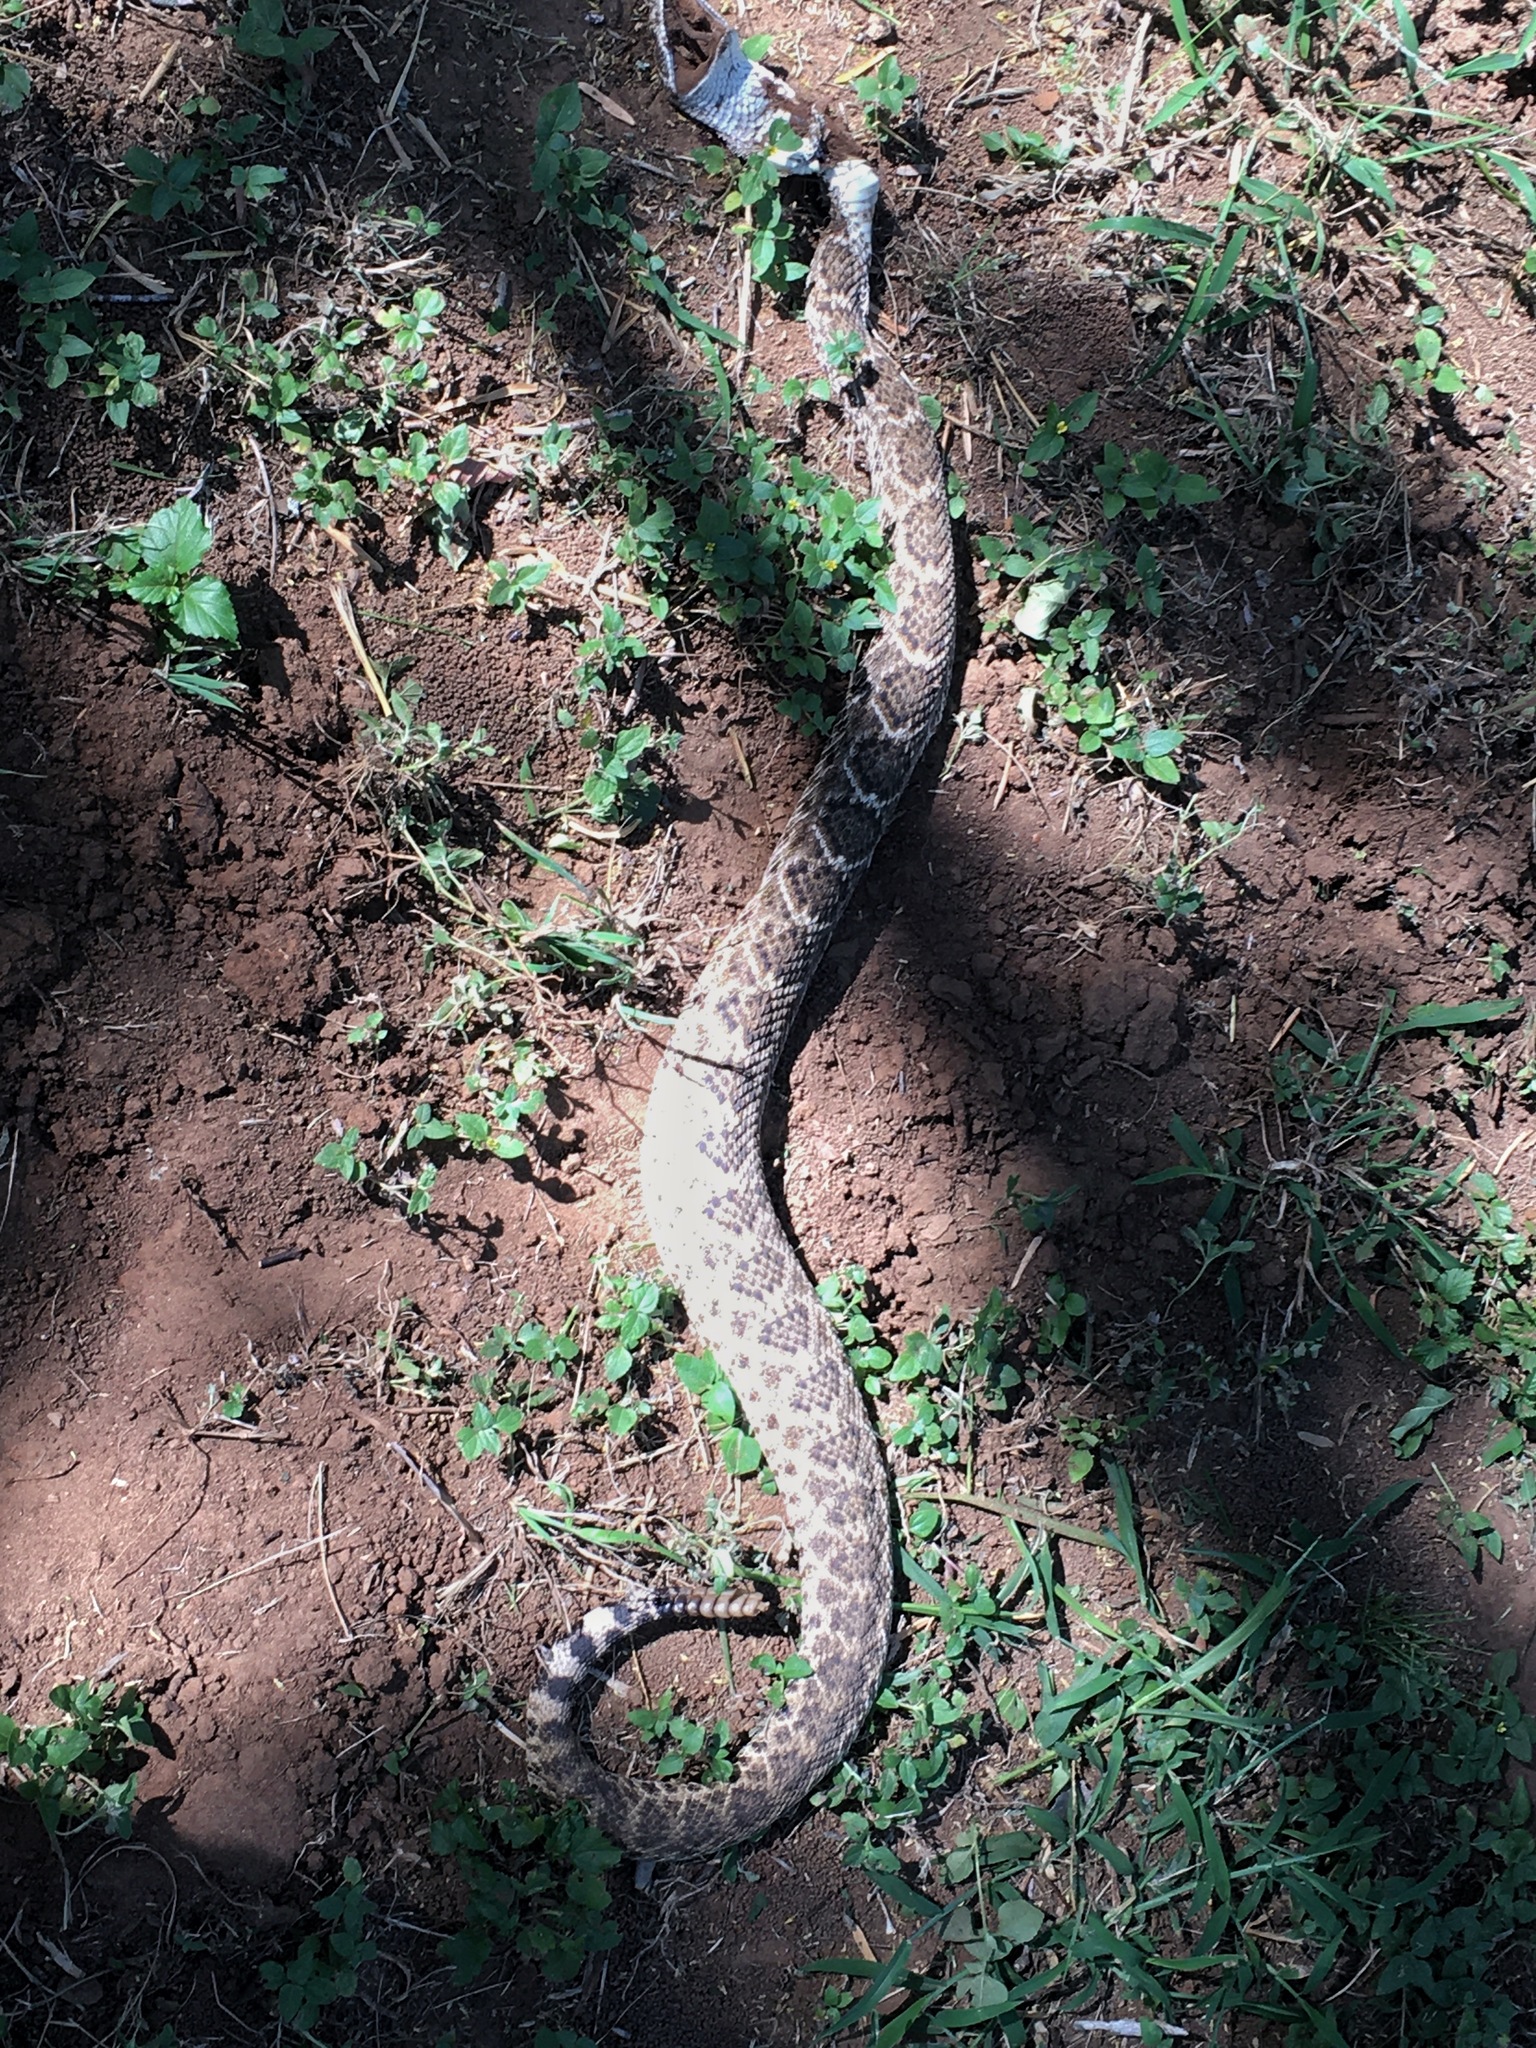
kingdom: Animalia
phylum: Chordata
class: Squamata
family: Viperidae
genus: Crotalus
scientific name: Crotalus atrox
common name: Western diamond-backed rattlesnake
